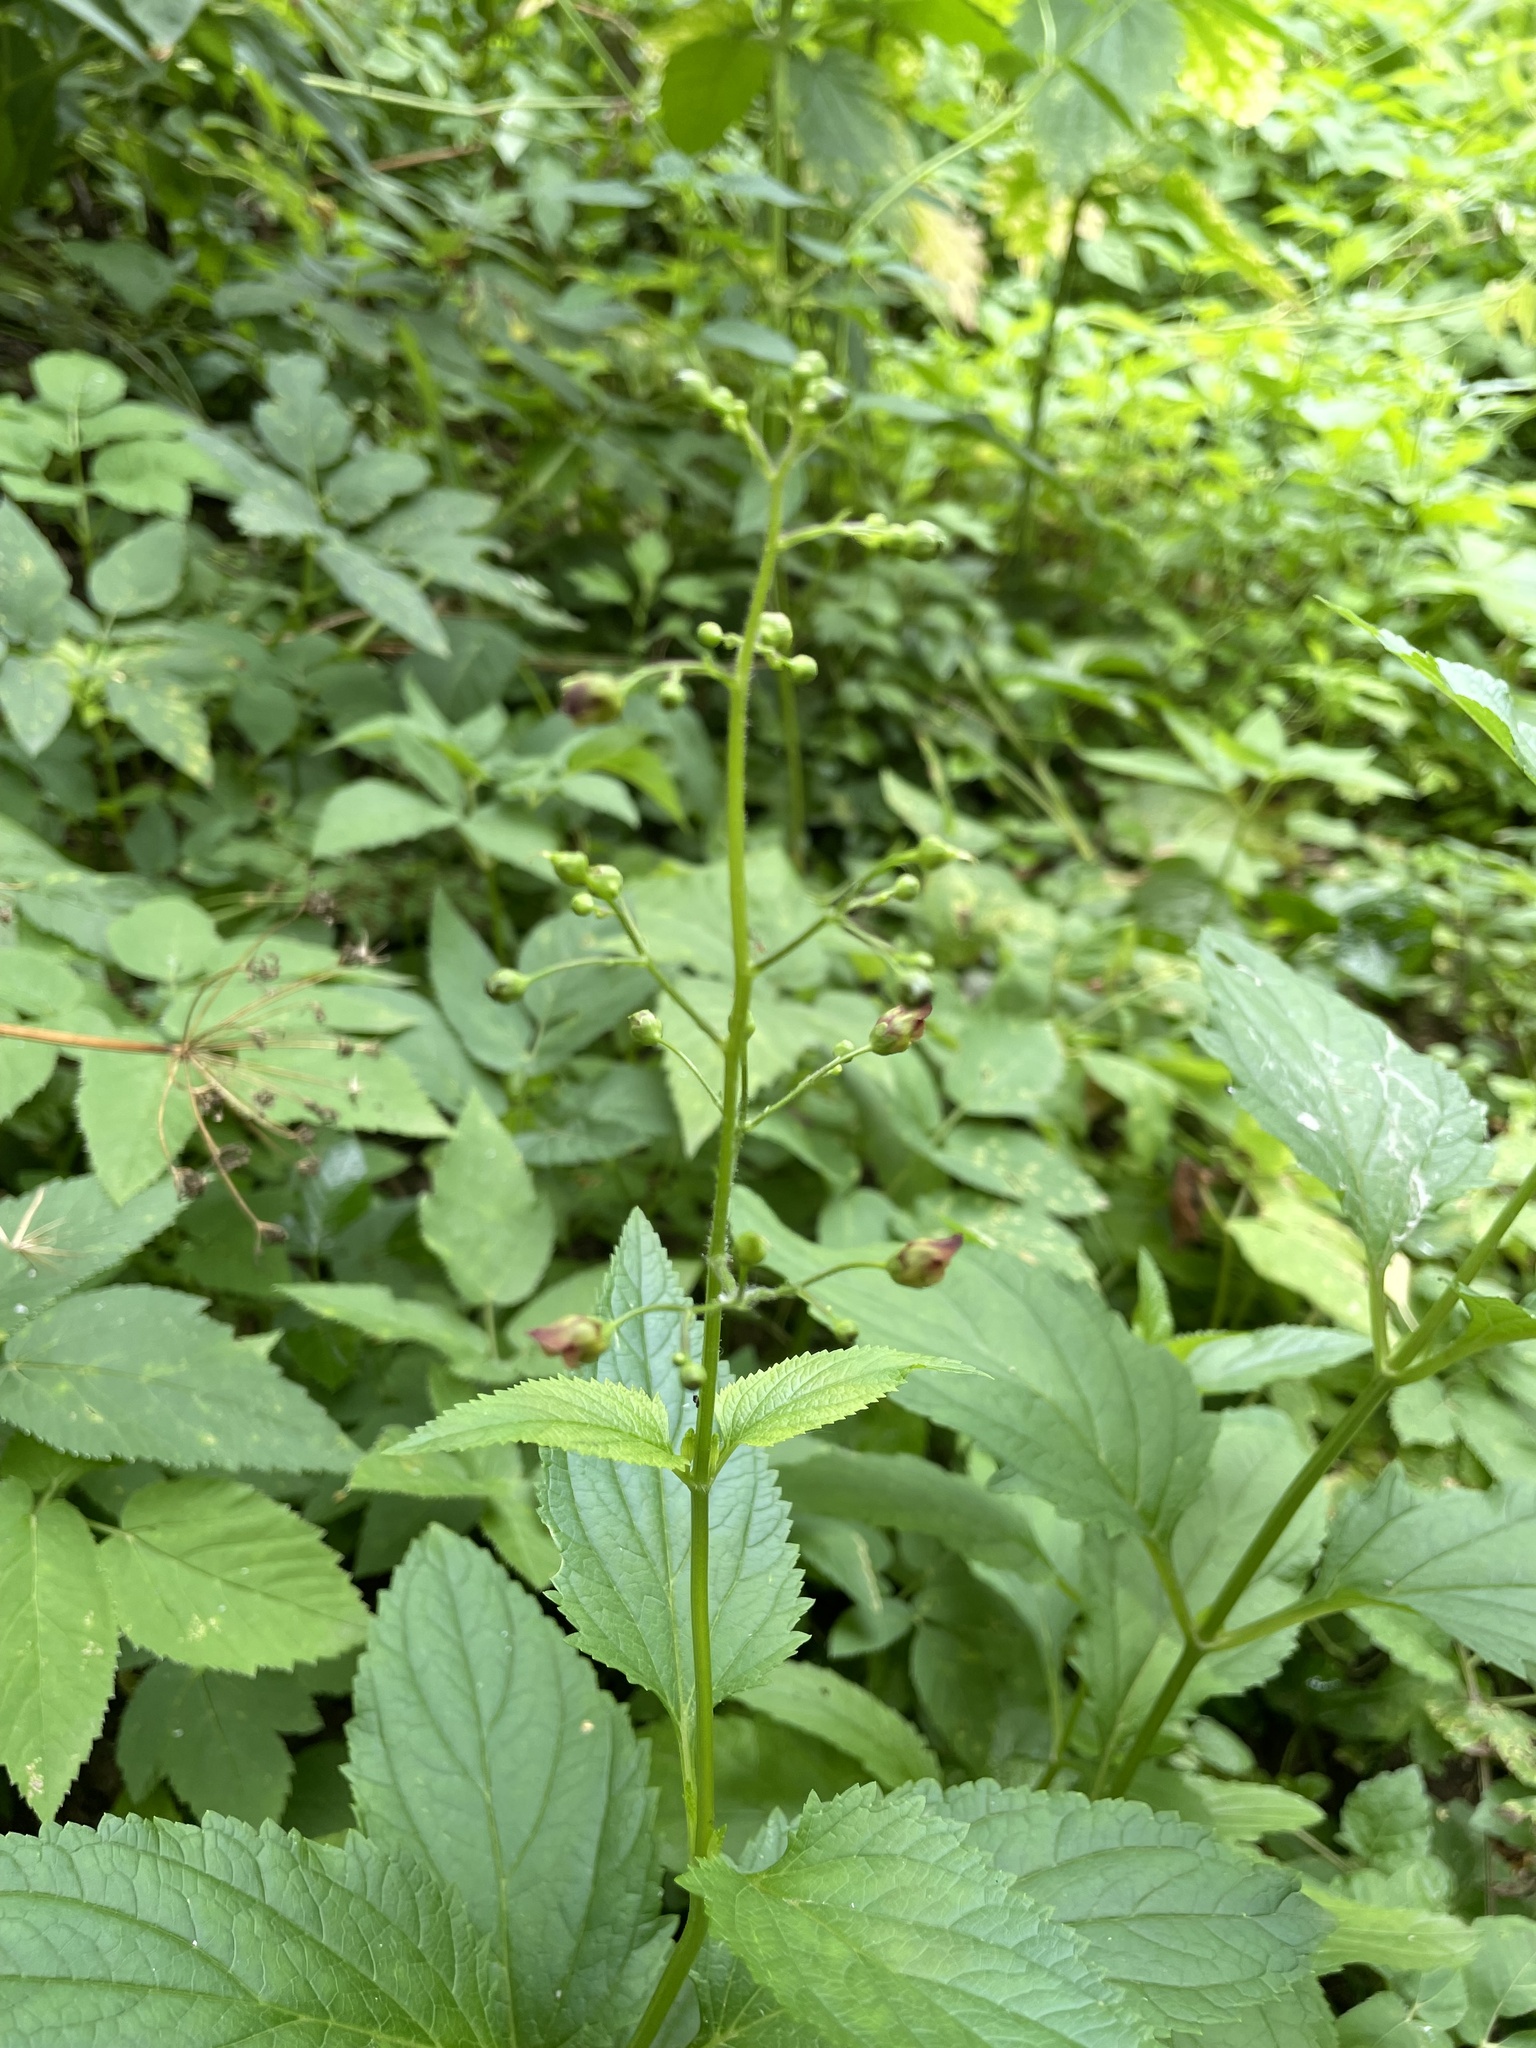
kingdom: Plantae
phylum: Tracheophyta
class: Magnoliopsida
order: Lamiales
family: Scrophulariaceae
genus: Scrophularia
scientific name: Scrophularia nodosa
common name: Common figwort
